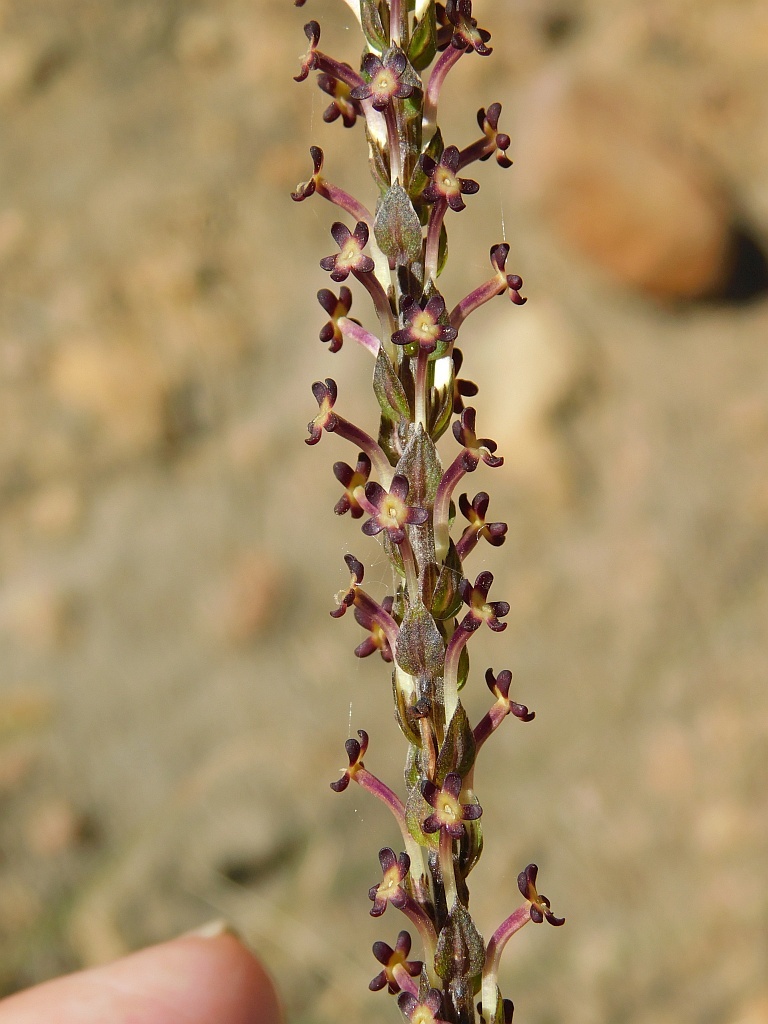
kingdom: Plantae
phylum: Tracheophyta
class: Magnoliopsida
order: Lamiales
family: Scrophulariaceae
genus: Microdon
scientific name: Microdon dubius
